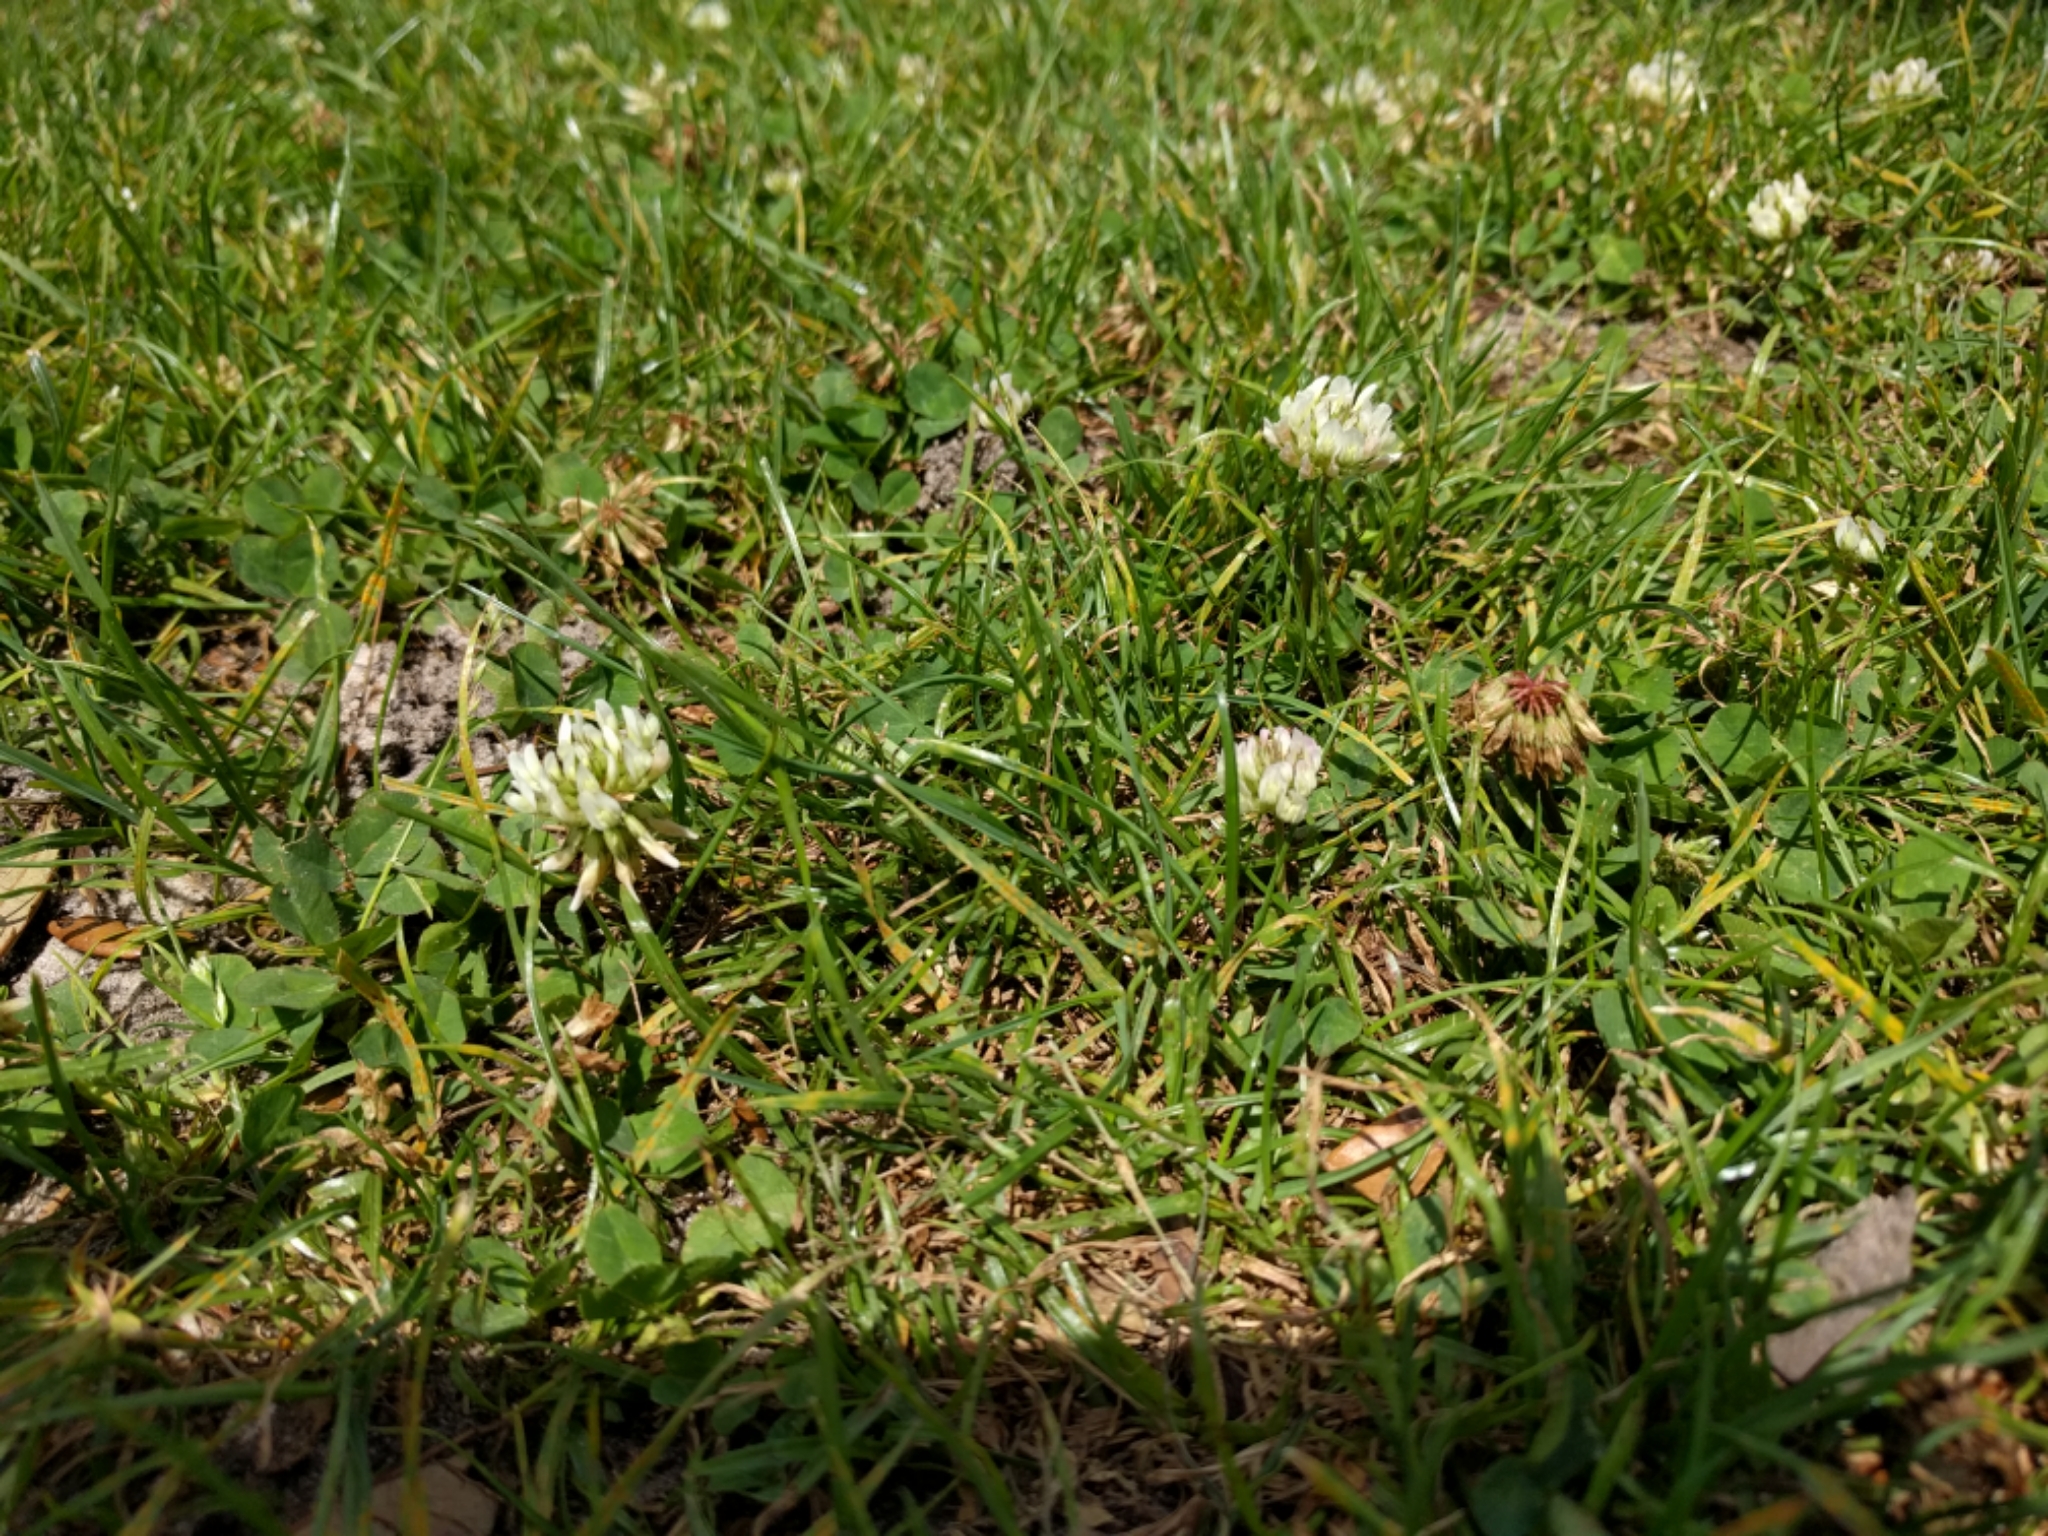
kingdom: Plantae
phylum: Tracheophyta
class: Magnoliopsida
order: Fabales
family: Fabaceae
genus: Trifolium
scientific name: Trifolium repens
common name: White clover
